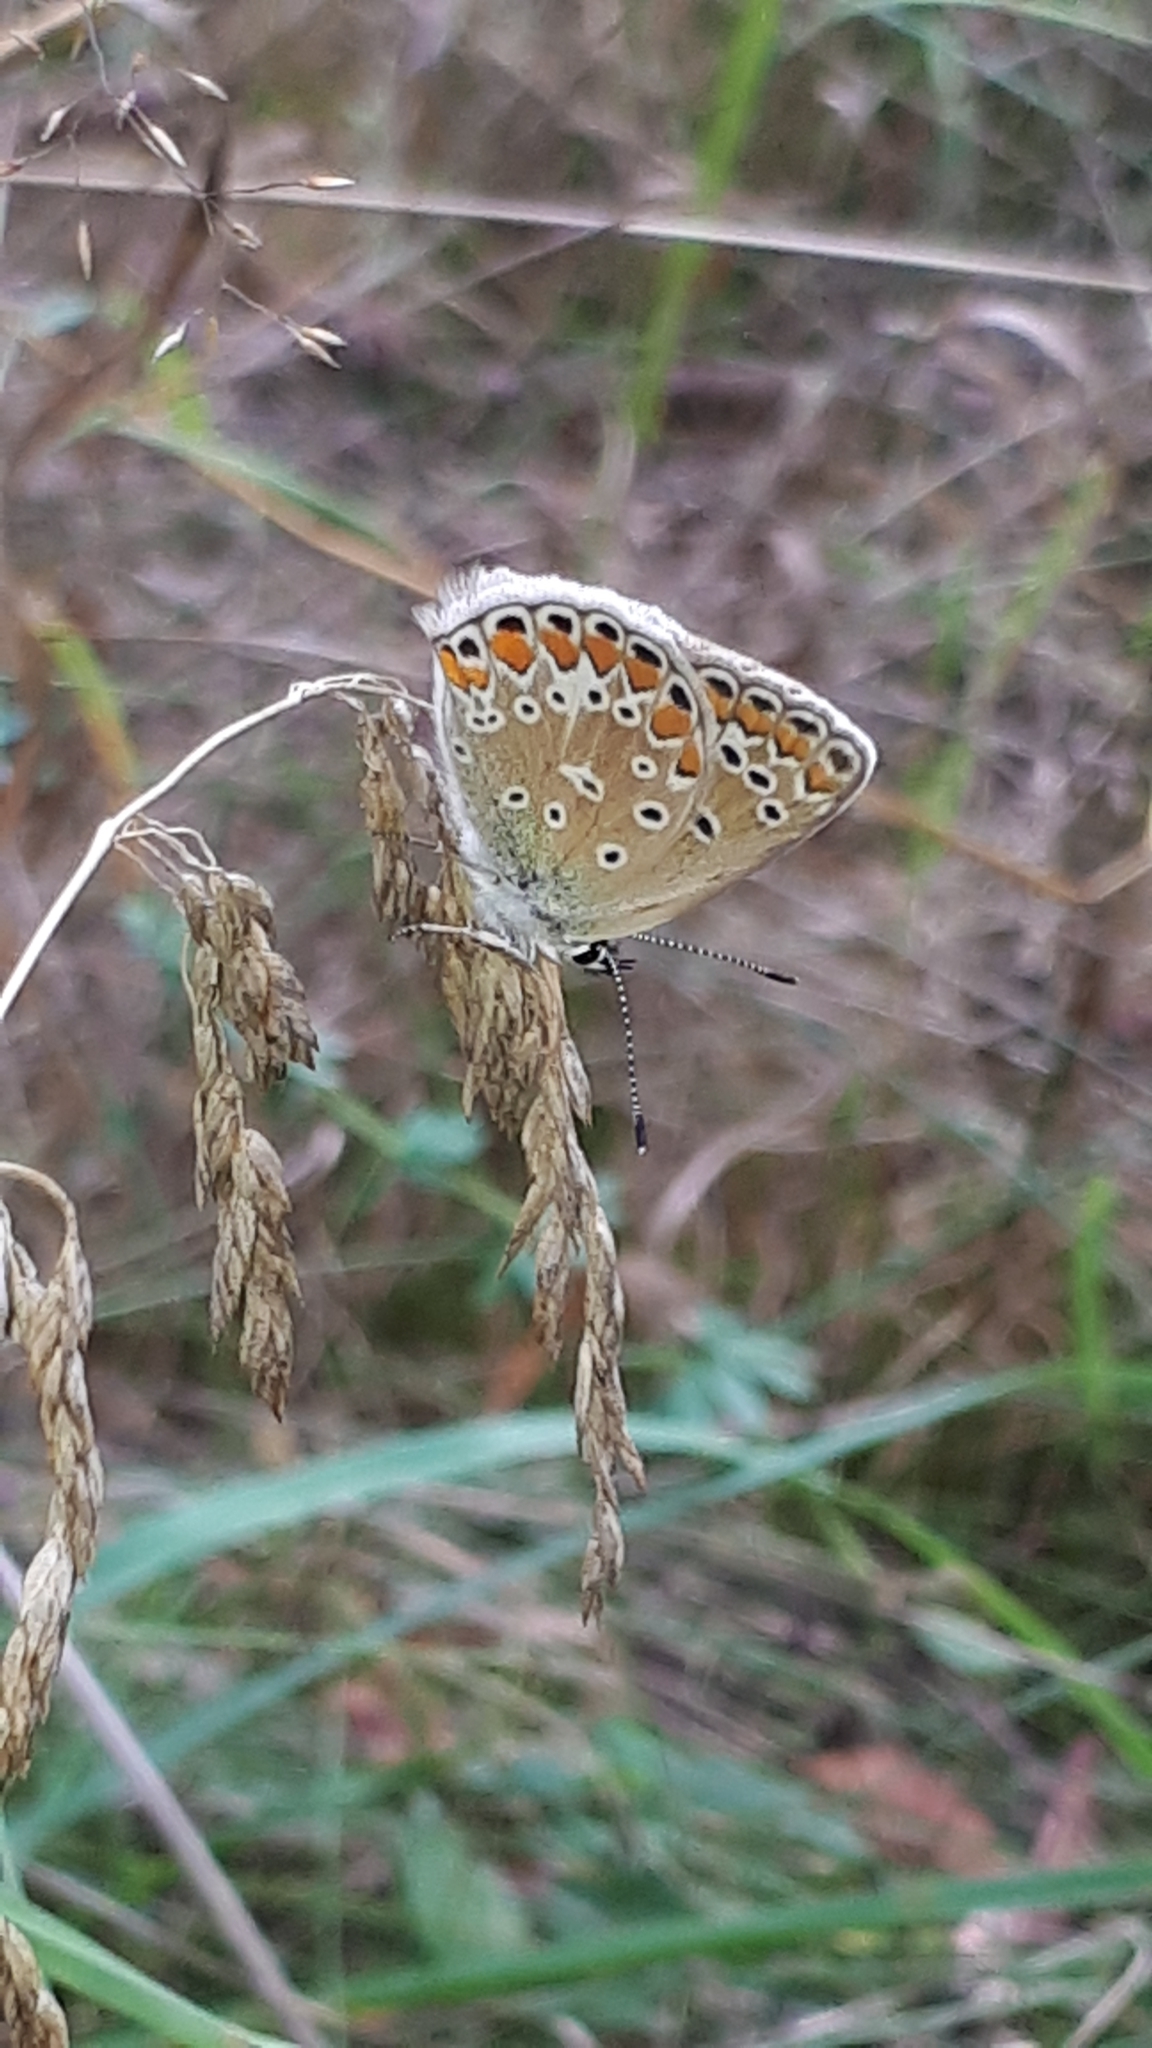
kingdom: Animalia
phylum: Arthropoda
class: Insecta
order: Lepidoptera
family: Lycaenidae
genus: Polyommatus
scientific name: Polyommatus icarus
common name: Common blue
